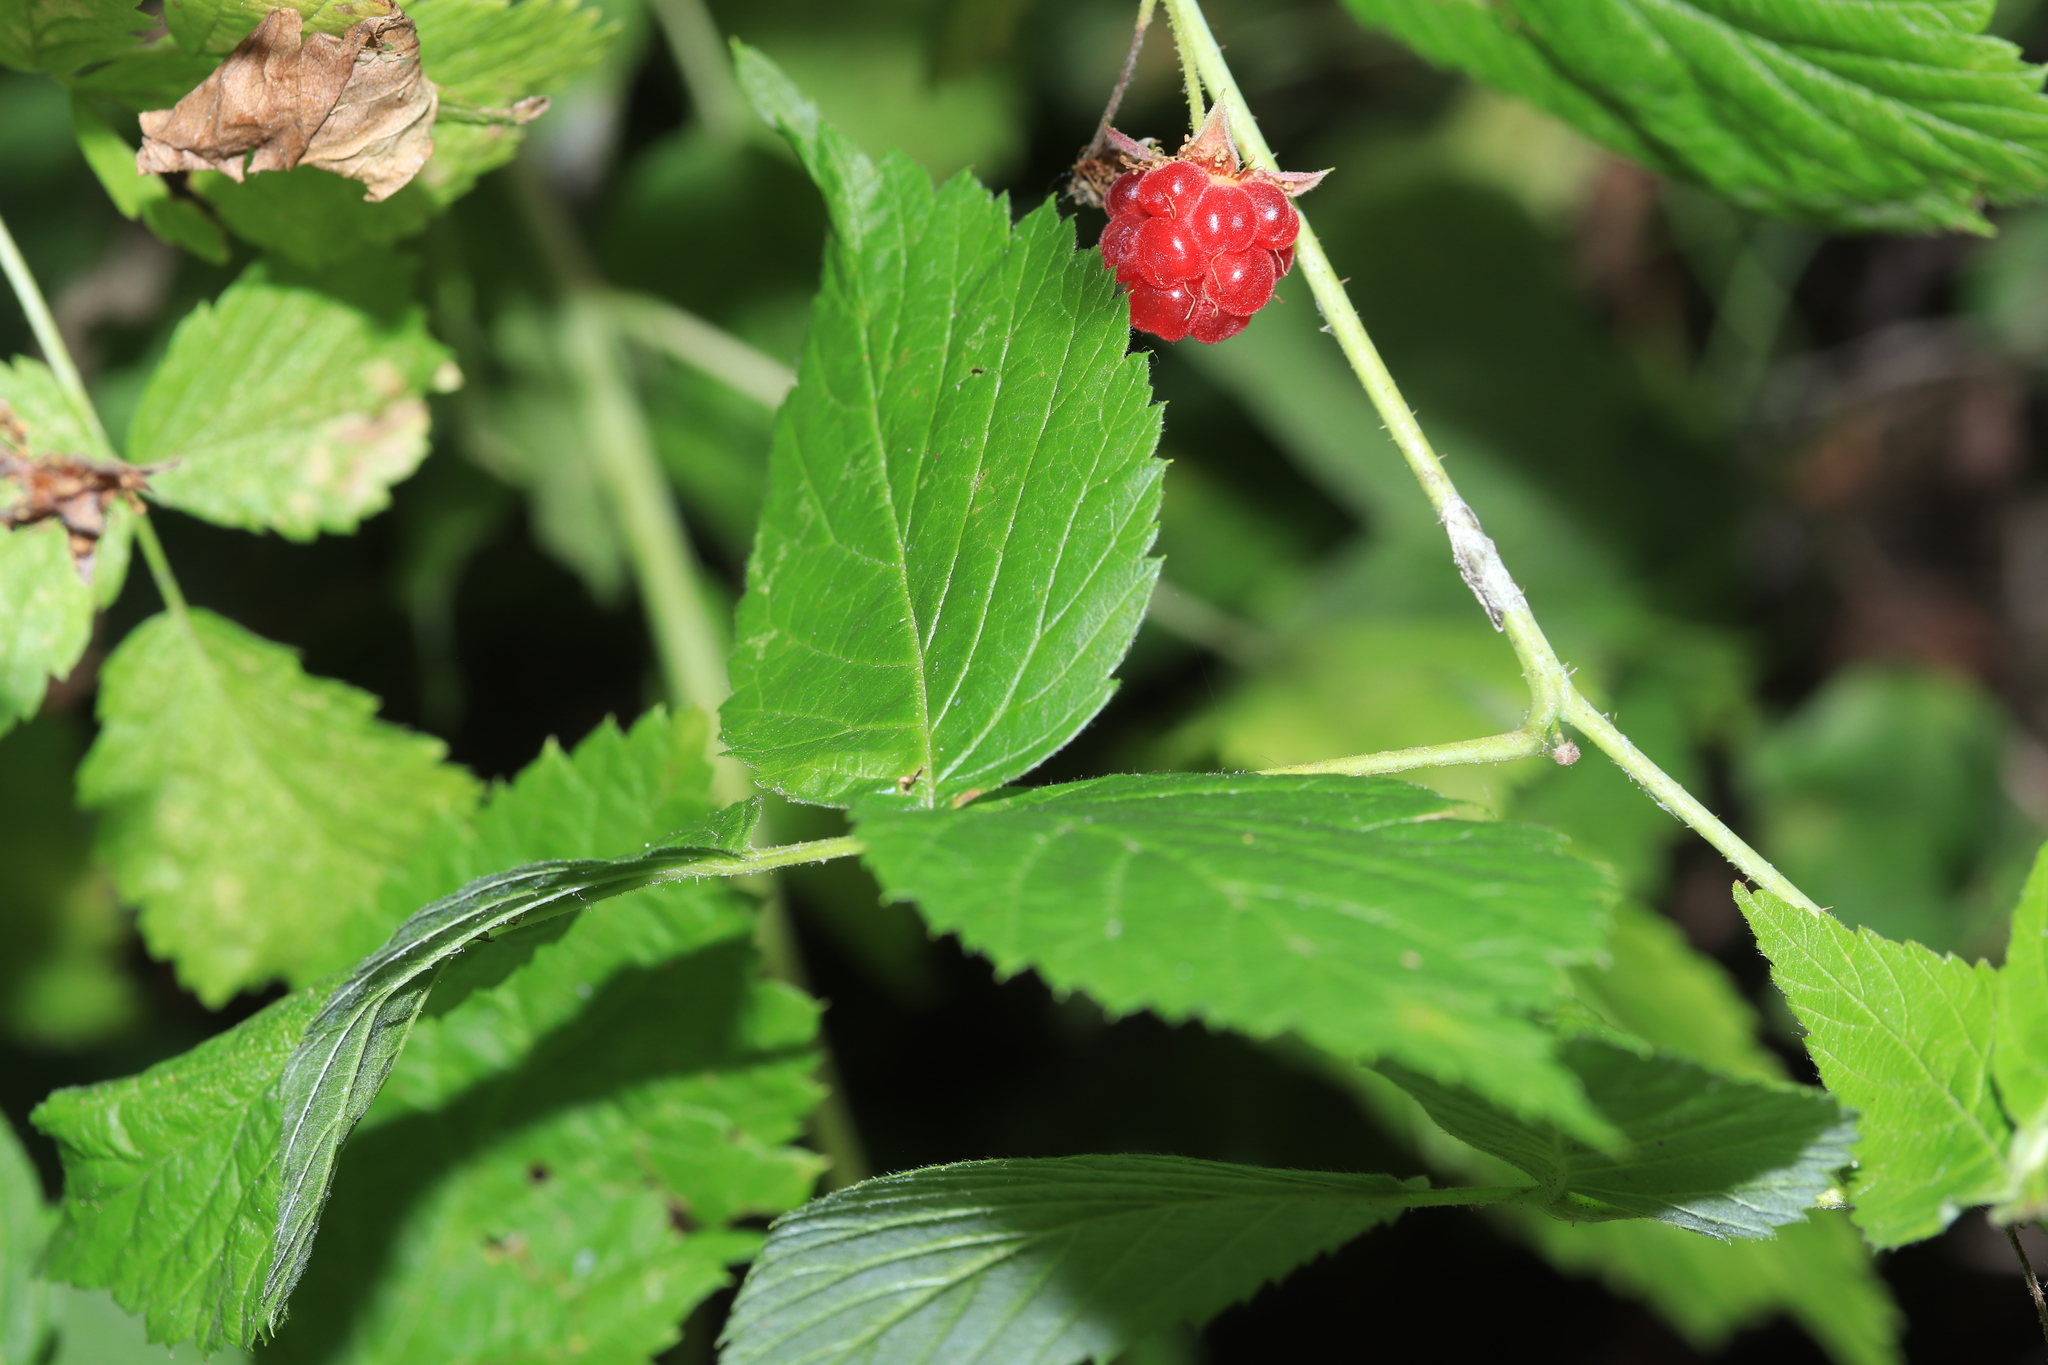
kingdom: Plantae
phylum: Tracheophyta
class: Magnoliopsida
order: Rosales
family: Rosaceae
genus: Rubus
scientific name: Rubus idaeus
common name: Raspberry
